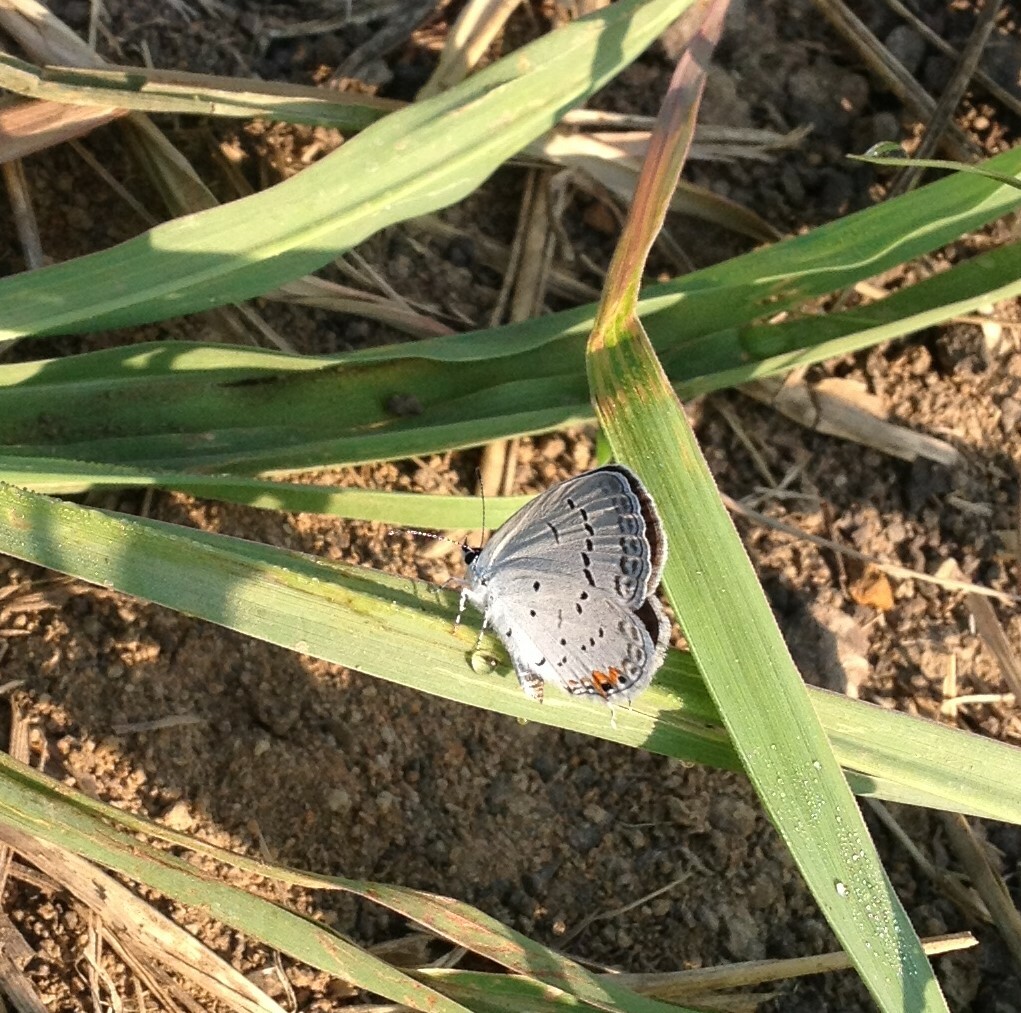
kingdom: Animalia
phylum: Arthropoda
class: Insecta
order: Lepidoptera
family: Lycaenidae
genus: Elkalyce
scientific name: Elkalyce comyntas
